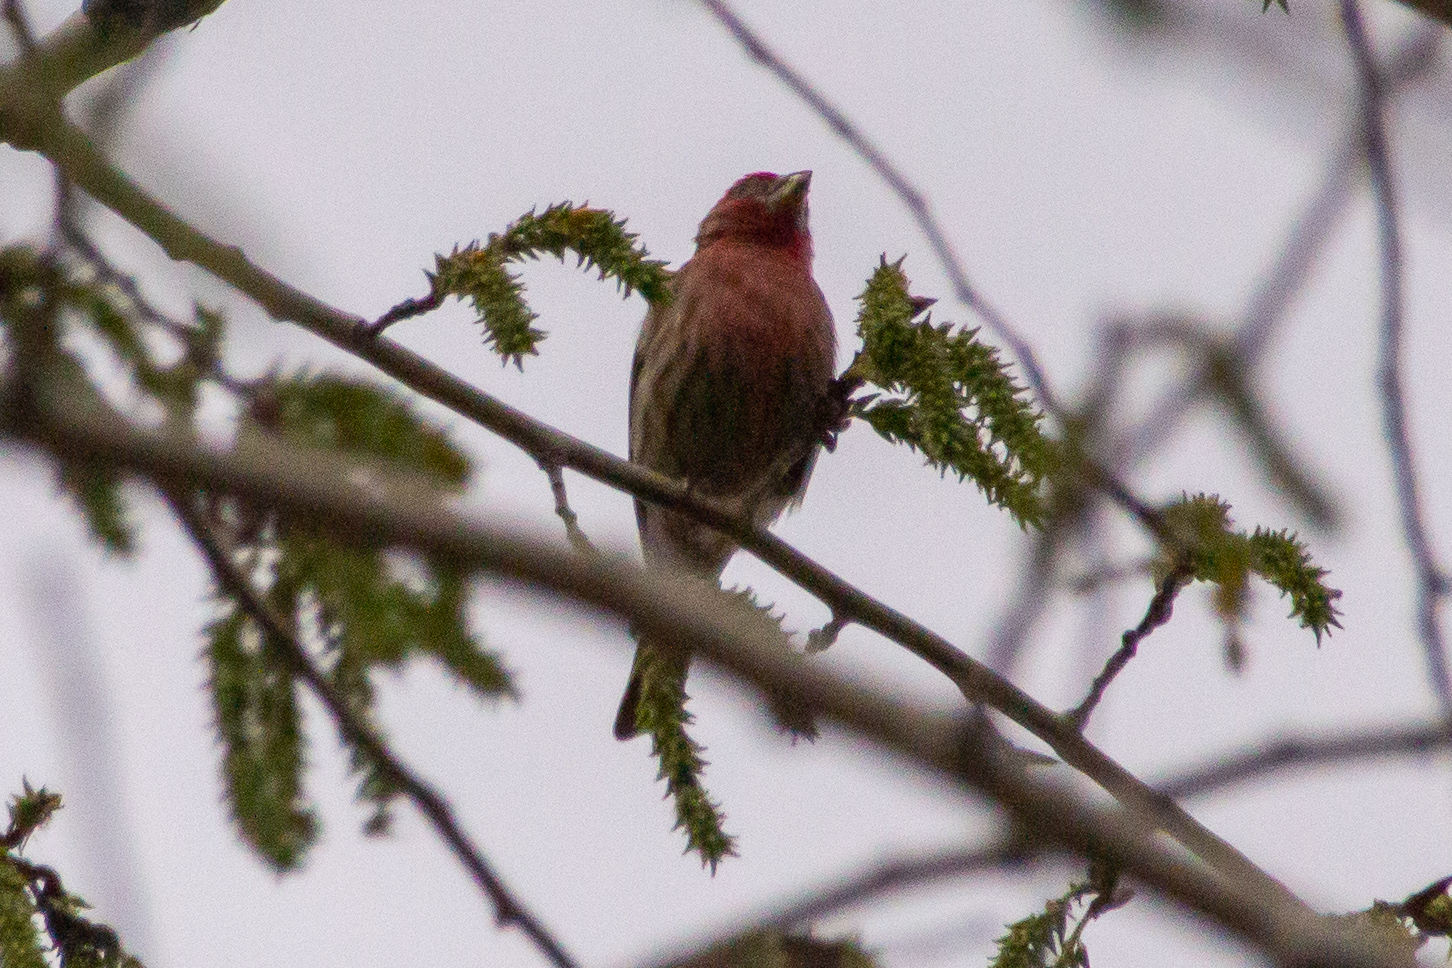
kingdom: Animalia
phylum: Chordata
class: Aves
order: Passeriformes
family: Fringillidae
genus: Haemorhous
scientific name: Haemorhous mexicanus
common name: House finch
